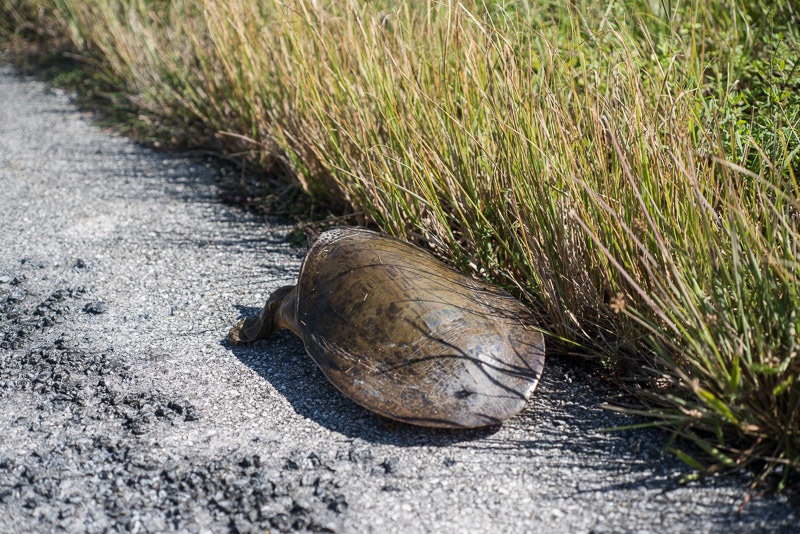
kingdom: Animalia
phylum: Chordata
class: Testudines
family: Trionychidae
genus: Apalone
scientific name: Apalone ferox
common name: Florida softshell turtle
